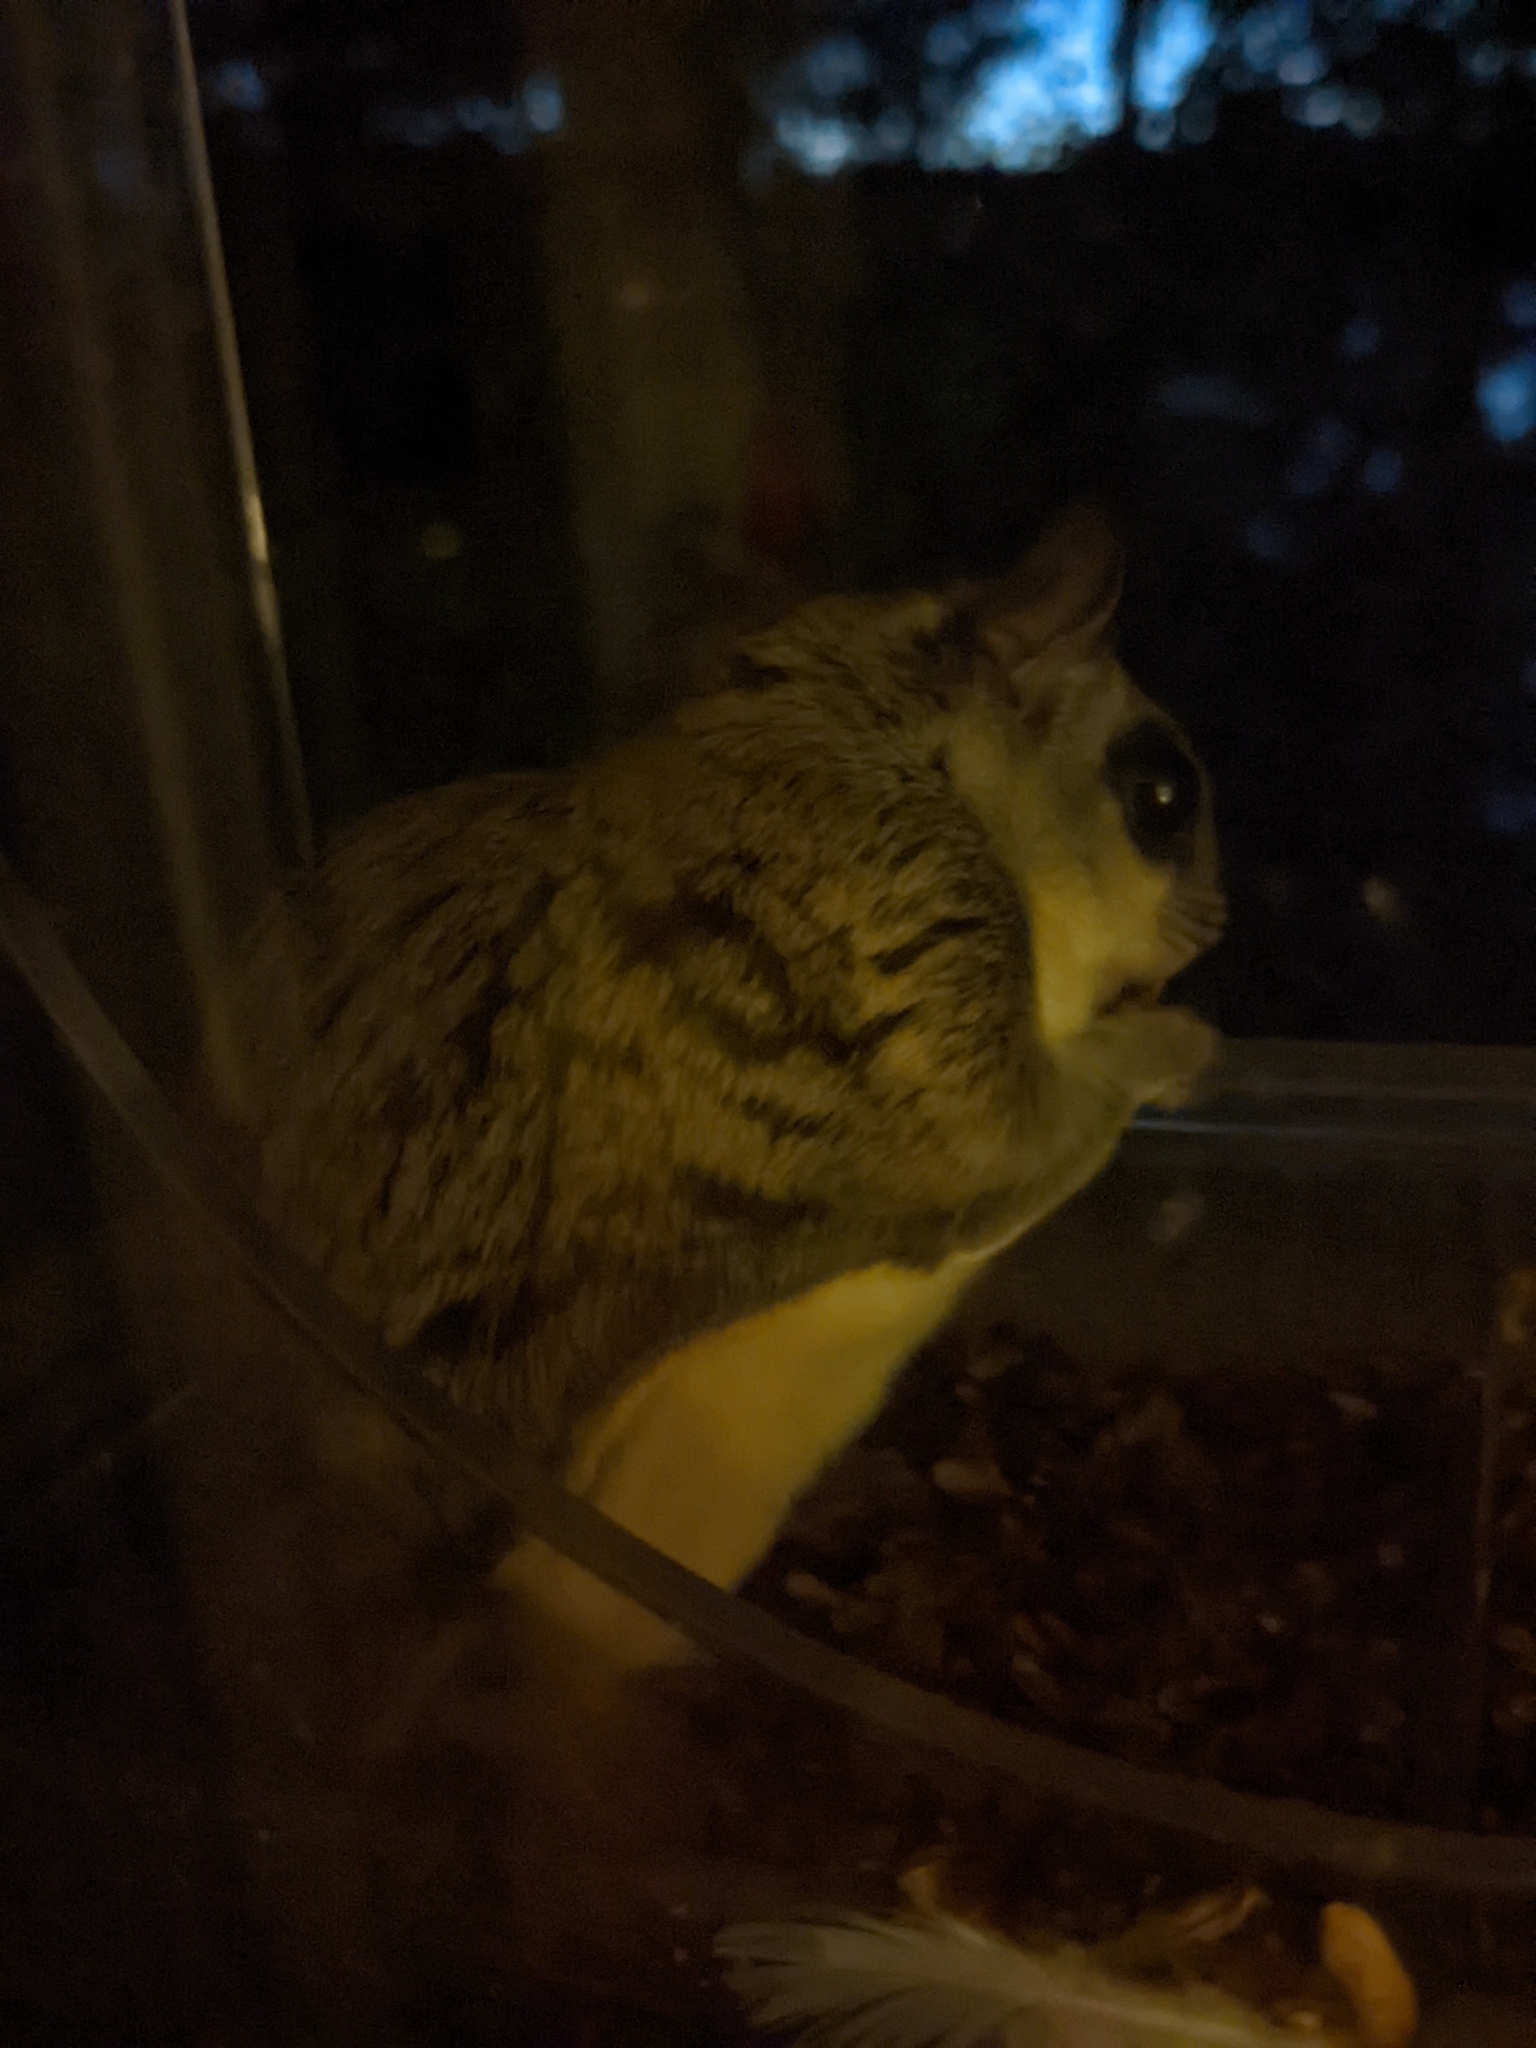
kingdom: Animalia
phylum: Chordata
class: Mammalia
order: Rodentia
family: Sciuridae
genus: Glaucomys
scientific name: Glaucomys sabrinus
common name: Northern flying squirrel
